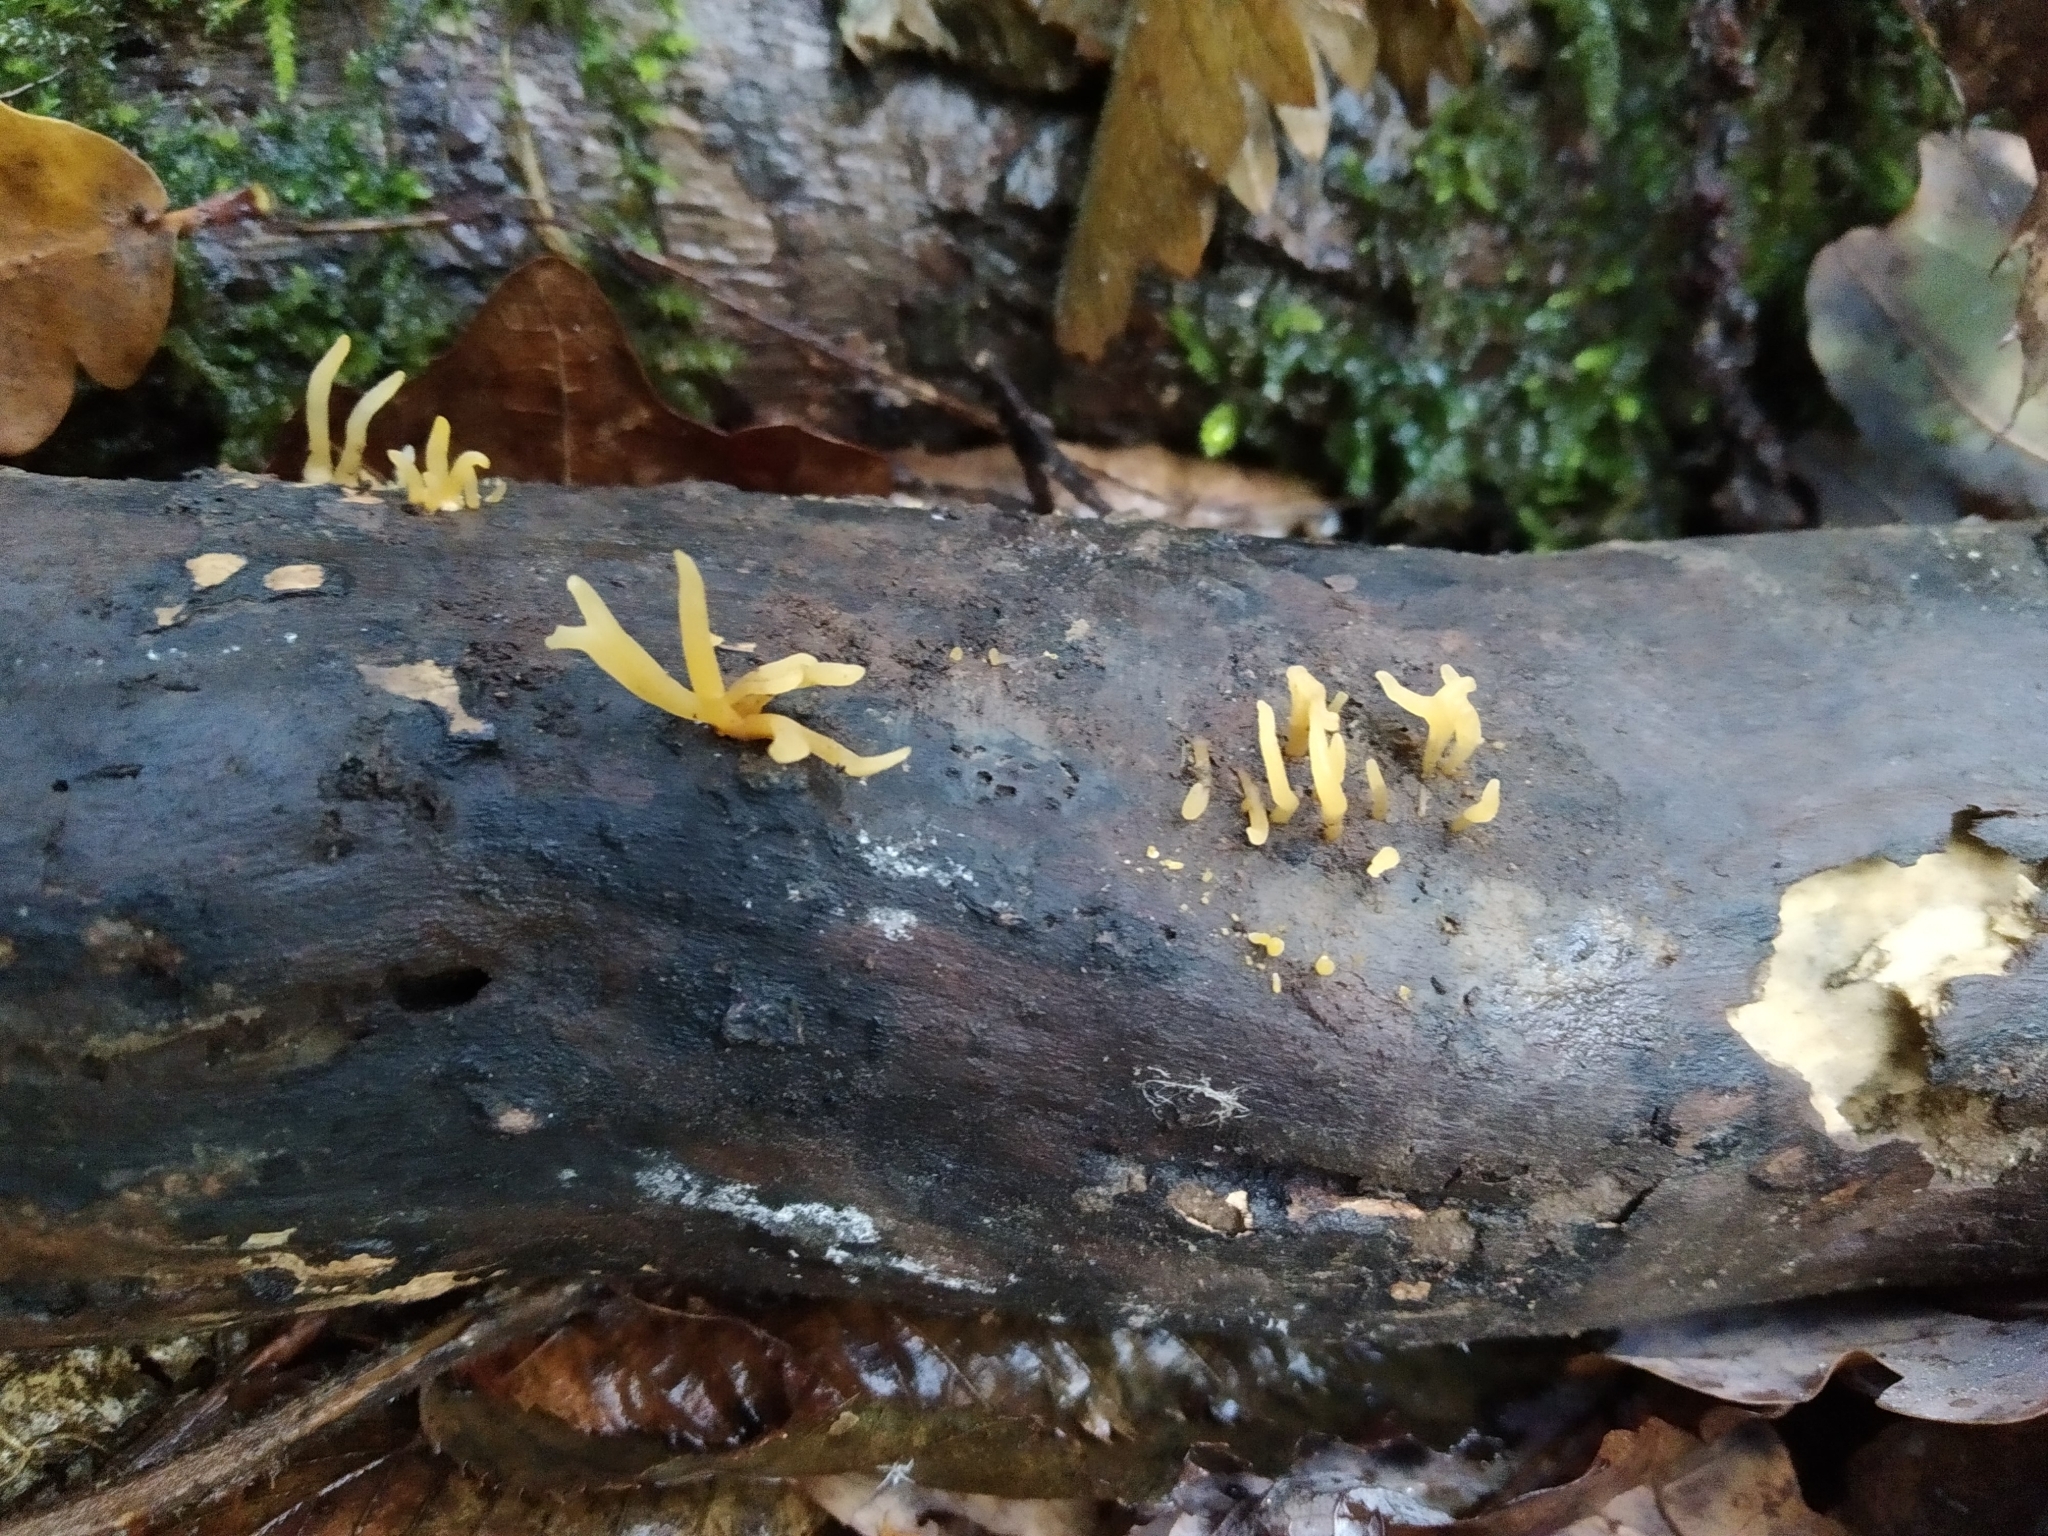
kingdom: Fungi
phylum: Basidiomycota
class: Dacrymycetes
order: Dacrymycetales
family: Dacrymycetaceae
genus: Calocera
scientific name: Calocera cornea
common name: Small stagshorn
